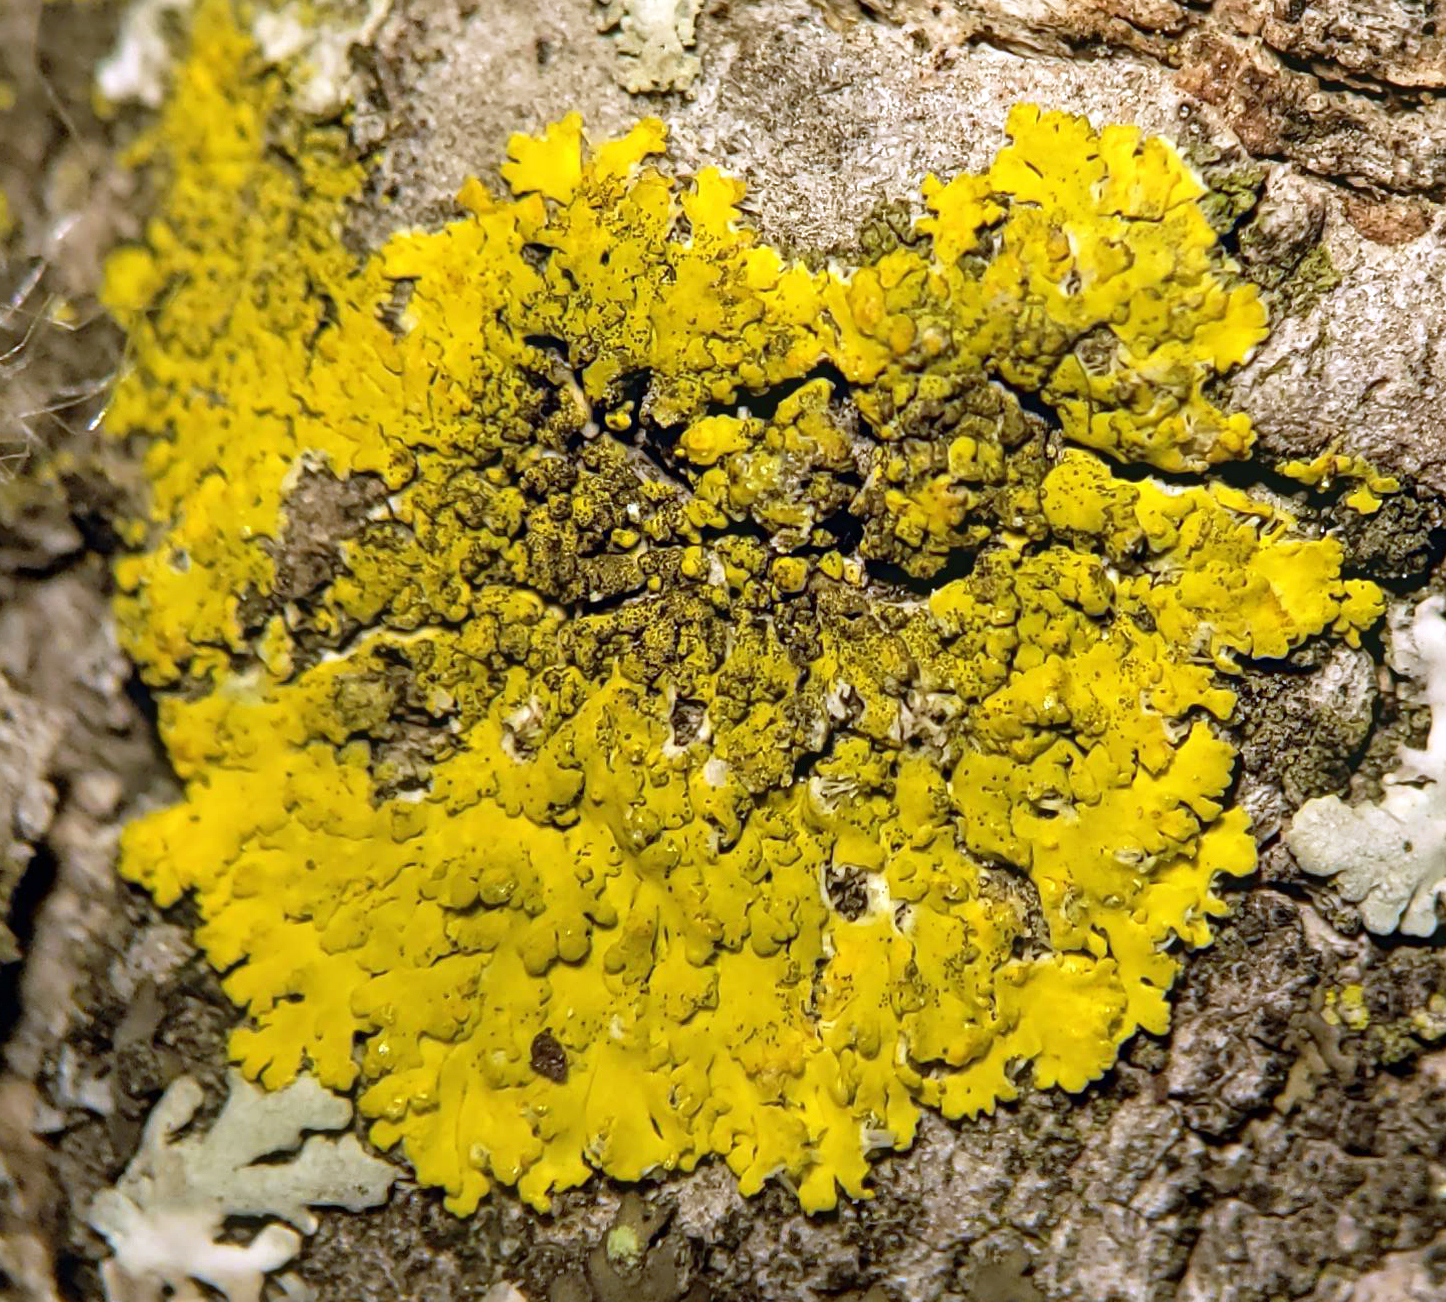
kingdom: Fungi
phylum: Ascomycota
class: Candelariomycetes
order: Candelariales
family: Candelariaceae
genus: Candelaria
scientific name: Candelaria fibrosa
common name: Fringed candleflame lichen
